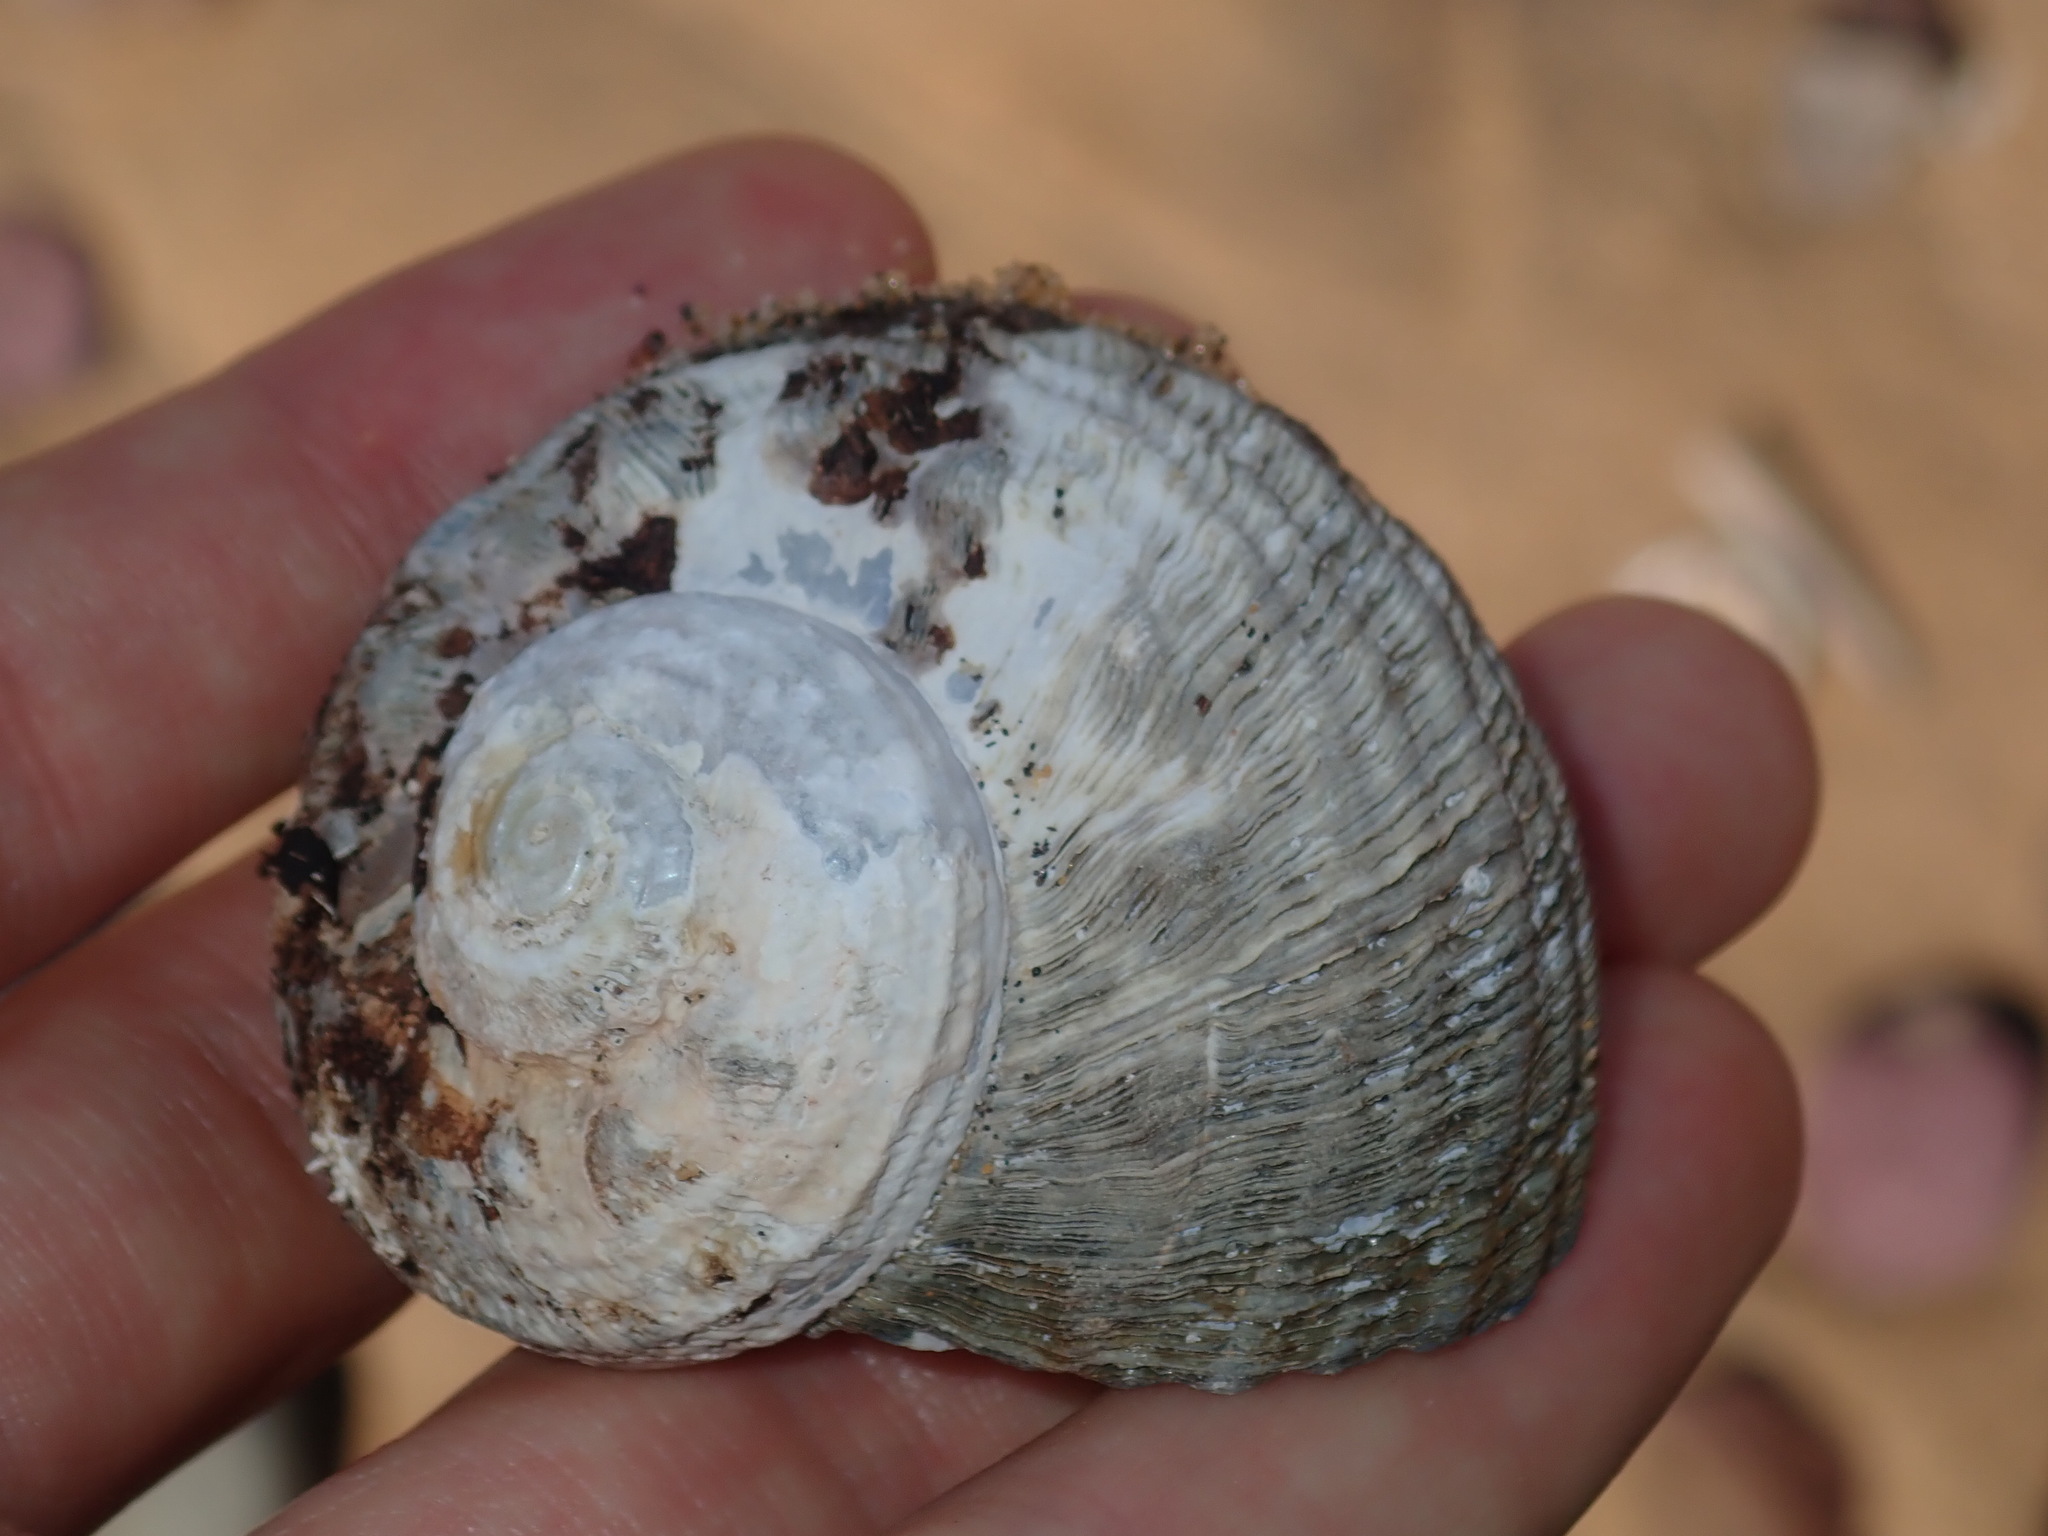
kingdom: Animalia
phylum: Mollusca
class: Gastropoda
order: Trochida
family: Turbinidae
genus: Lunella
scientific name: Lunella torquata
